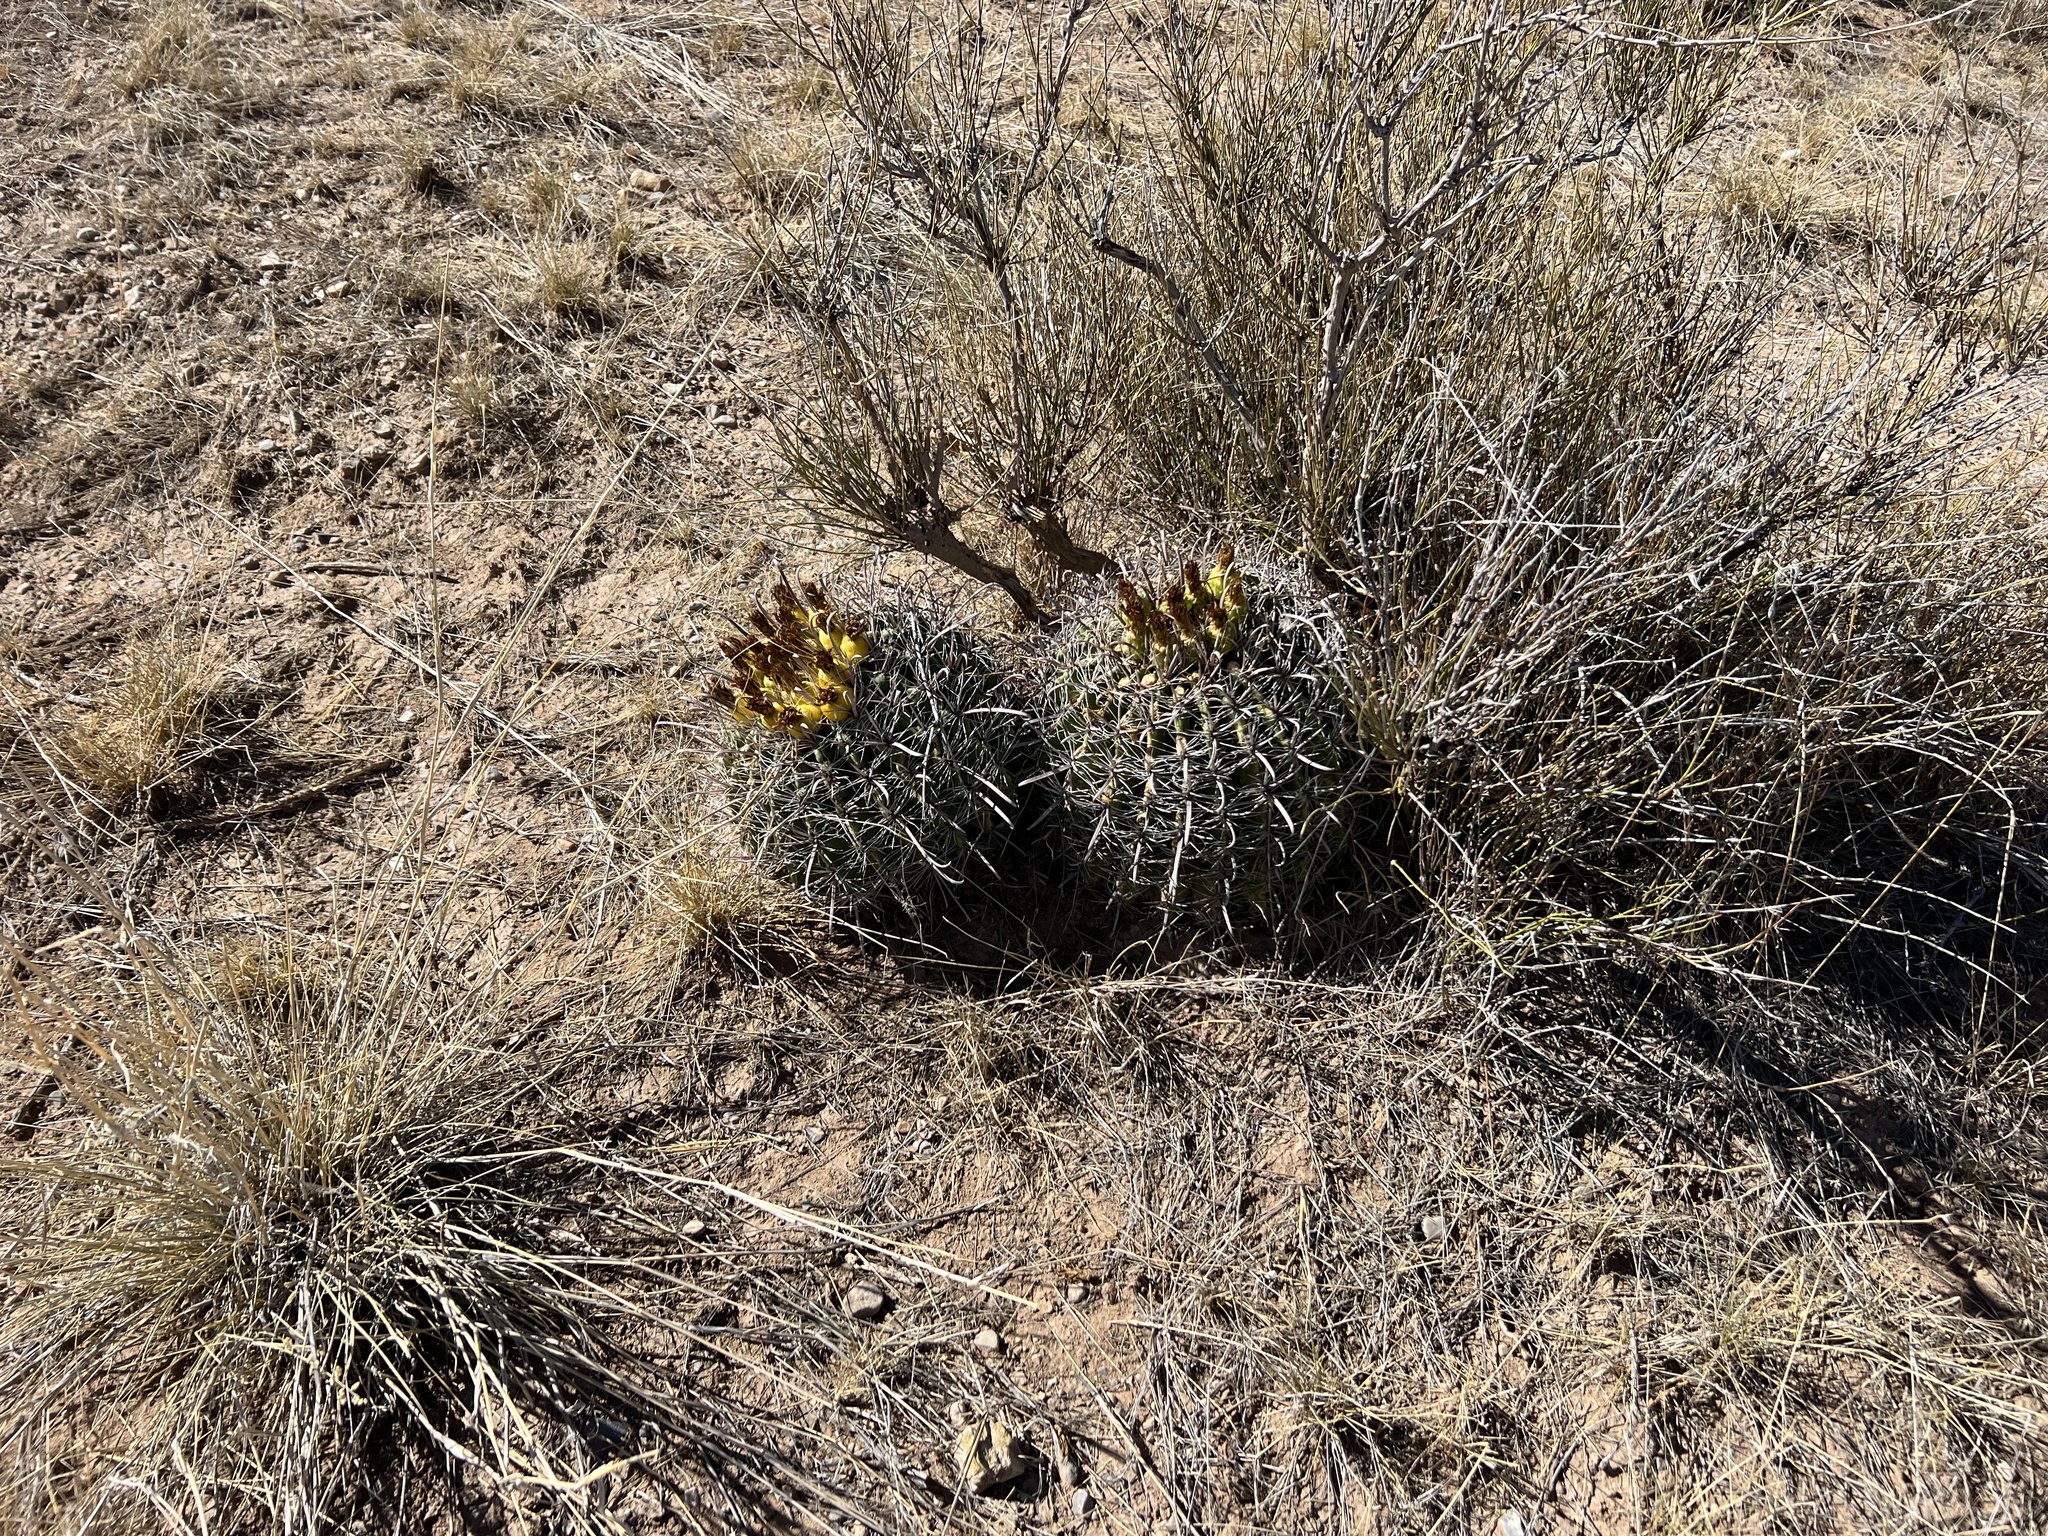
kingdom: Plantae
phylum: Tracheophyta
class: Magnoliopsida
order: Caryophyllales
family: Cactaceae
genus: Ferocactus
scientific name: Ferocactus wislizeni
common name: Candy barrel cactus
